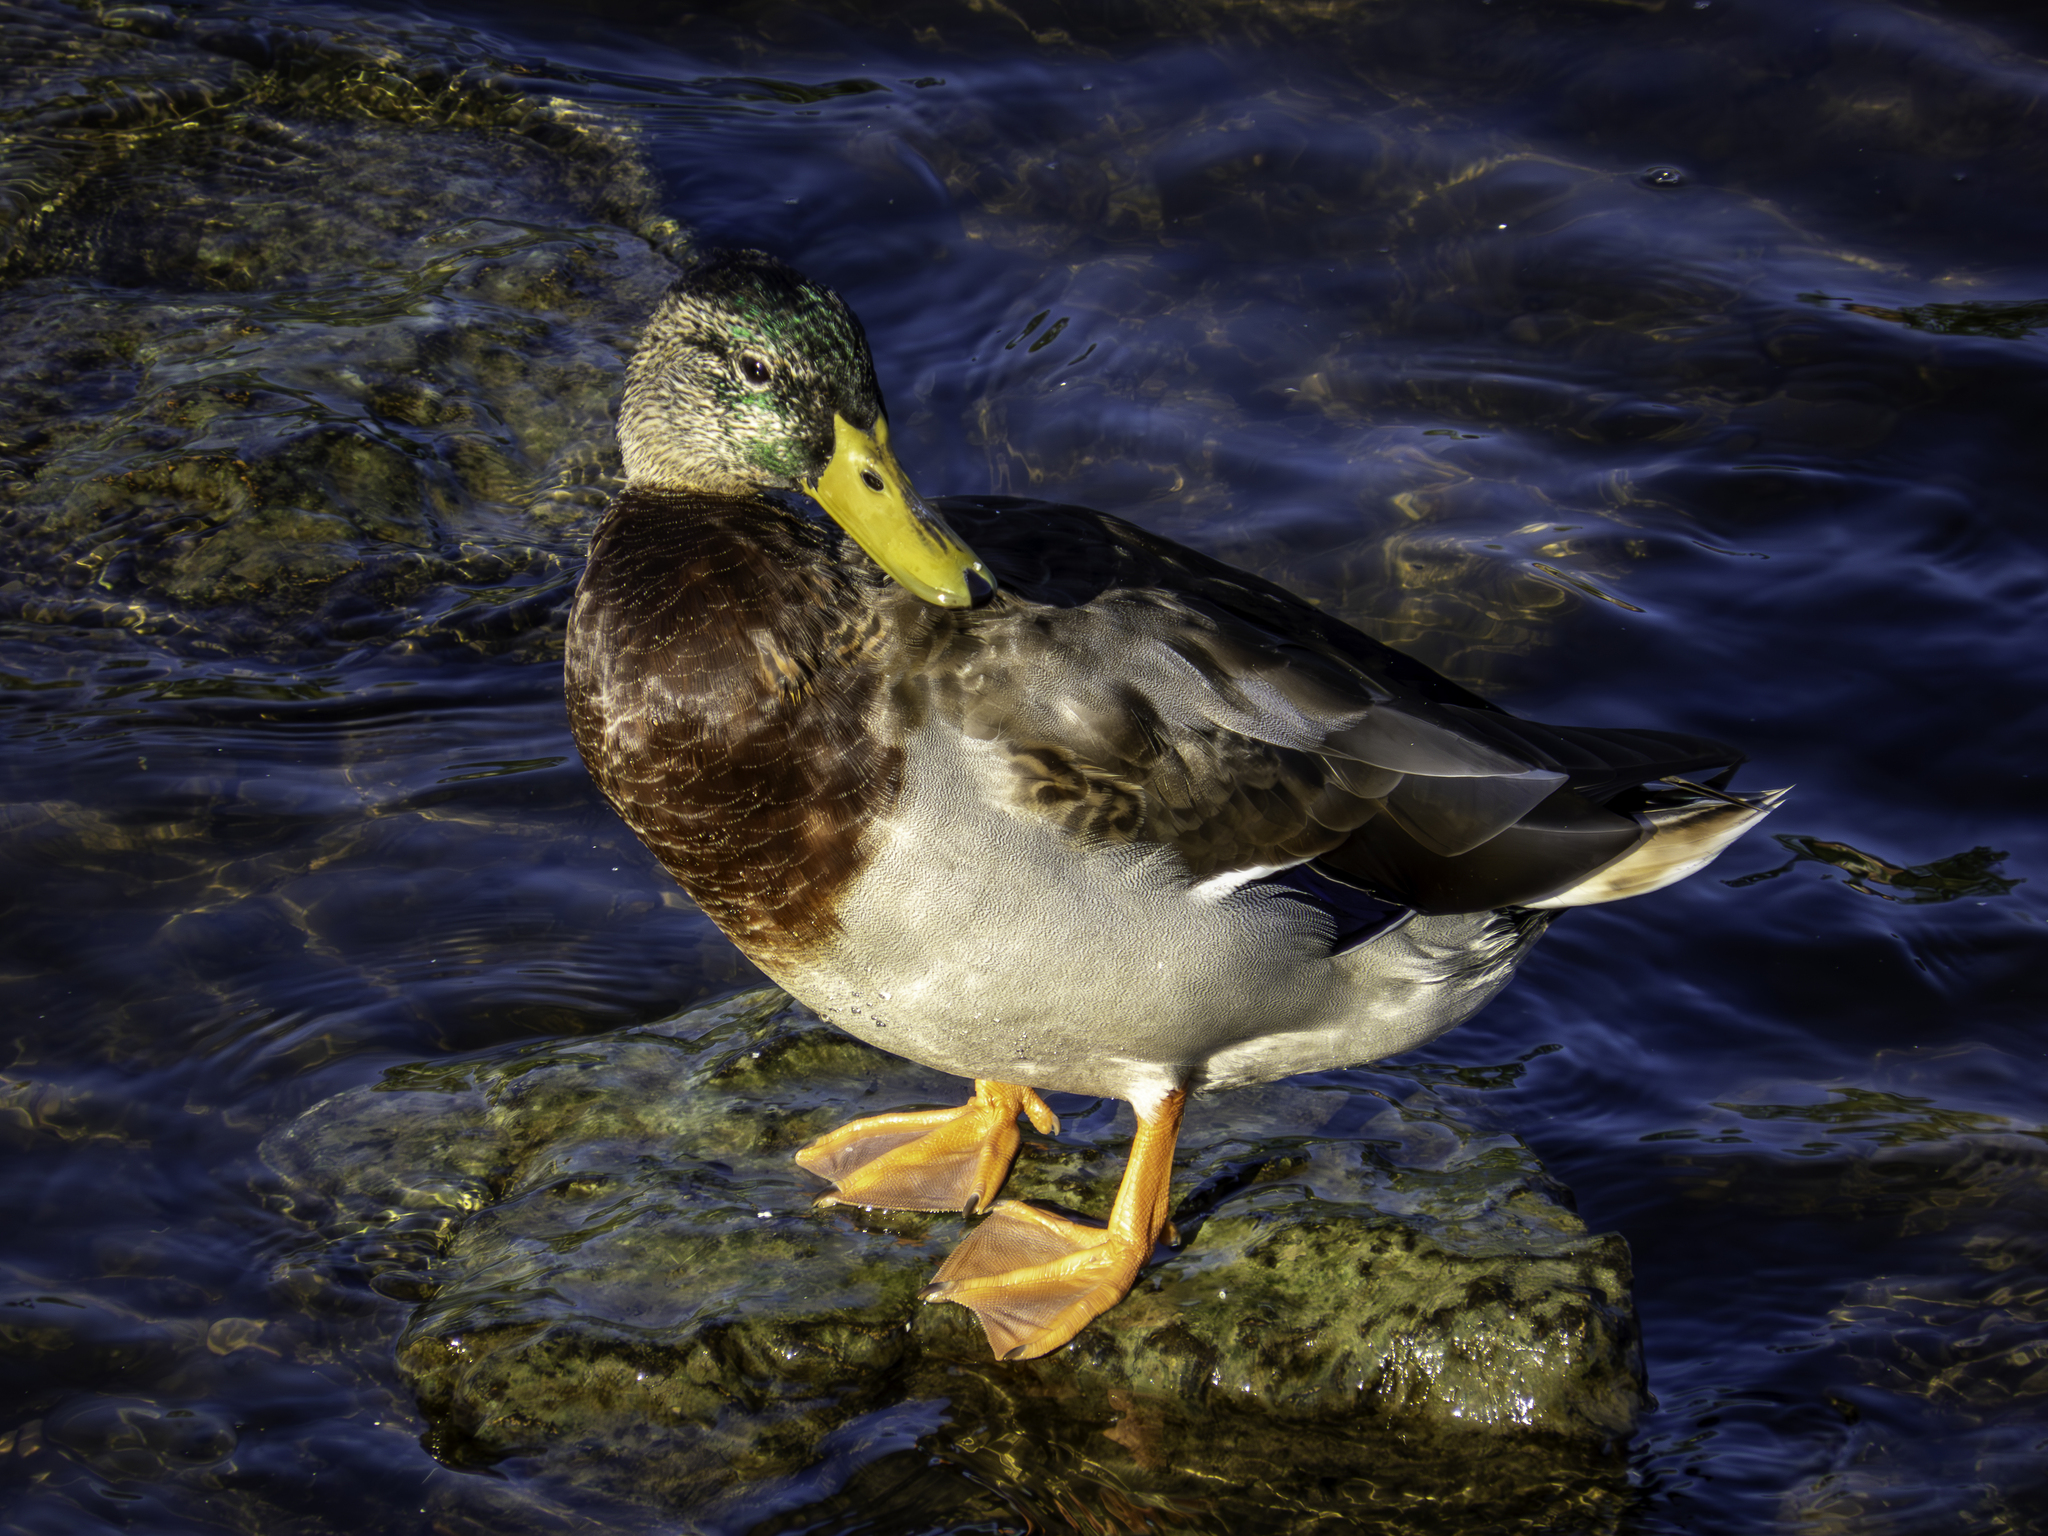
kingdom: Animalia
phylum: Chordata
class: Aves
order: Anseriformes
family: Anatidae
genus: Anas
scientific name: Anas platyrhynchos
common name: Mallard
